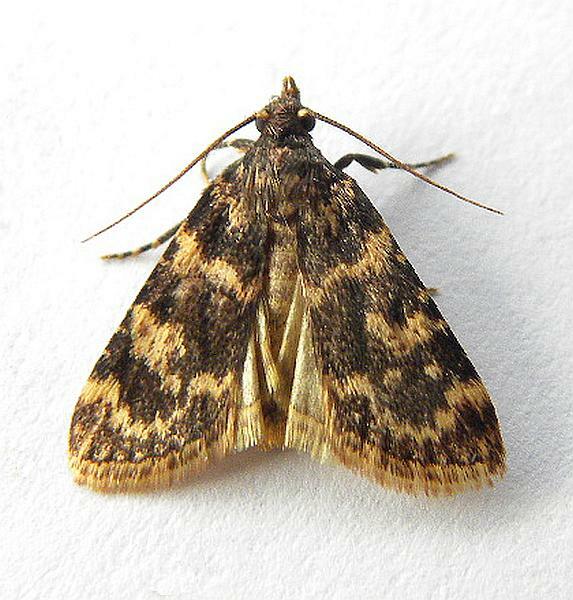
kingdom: Animalia
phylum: Arthropoda
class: Insecta
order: Lepidoptera
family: Pyralidae
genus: Aglossa
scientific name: Aglossa caprealis
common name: Small tabby
